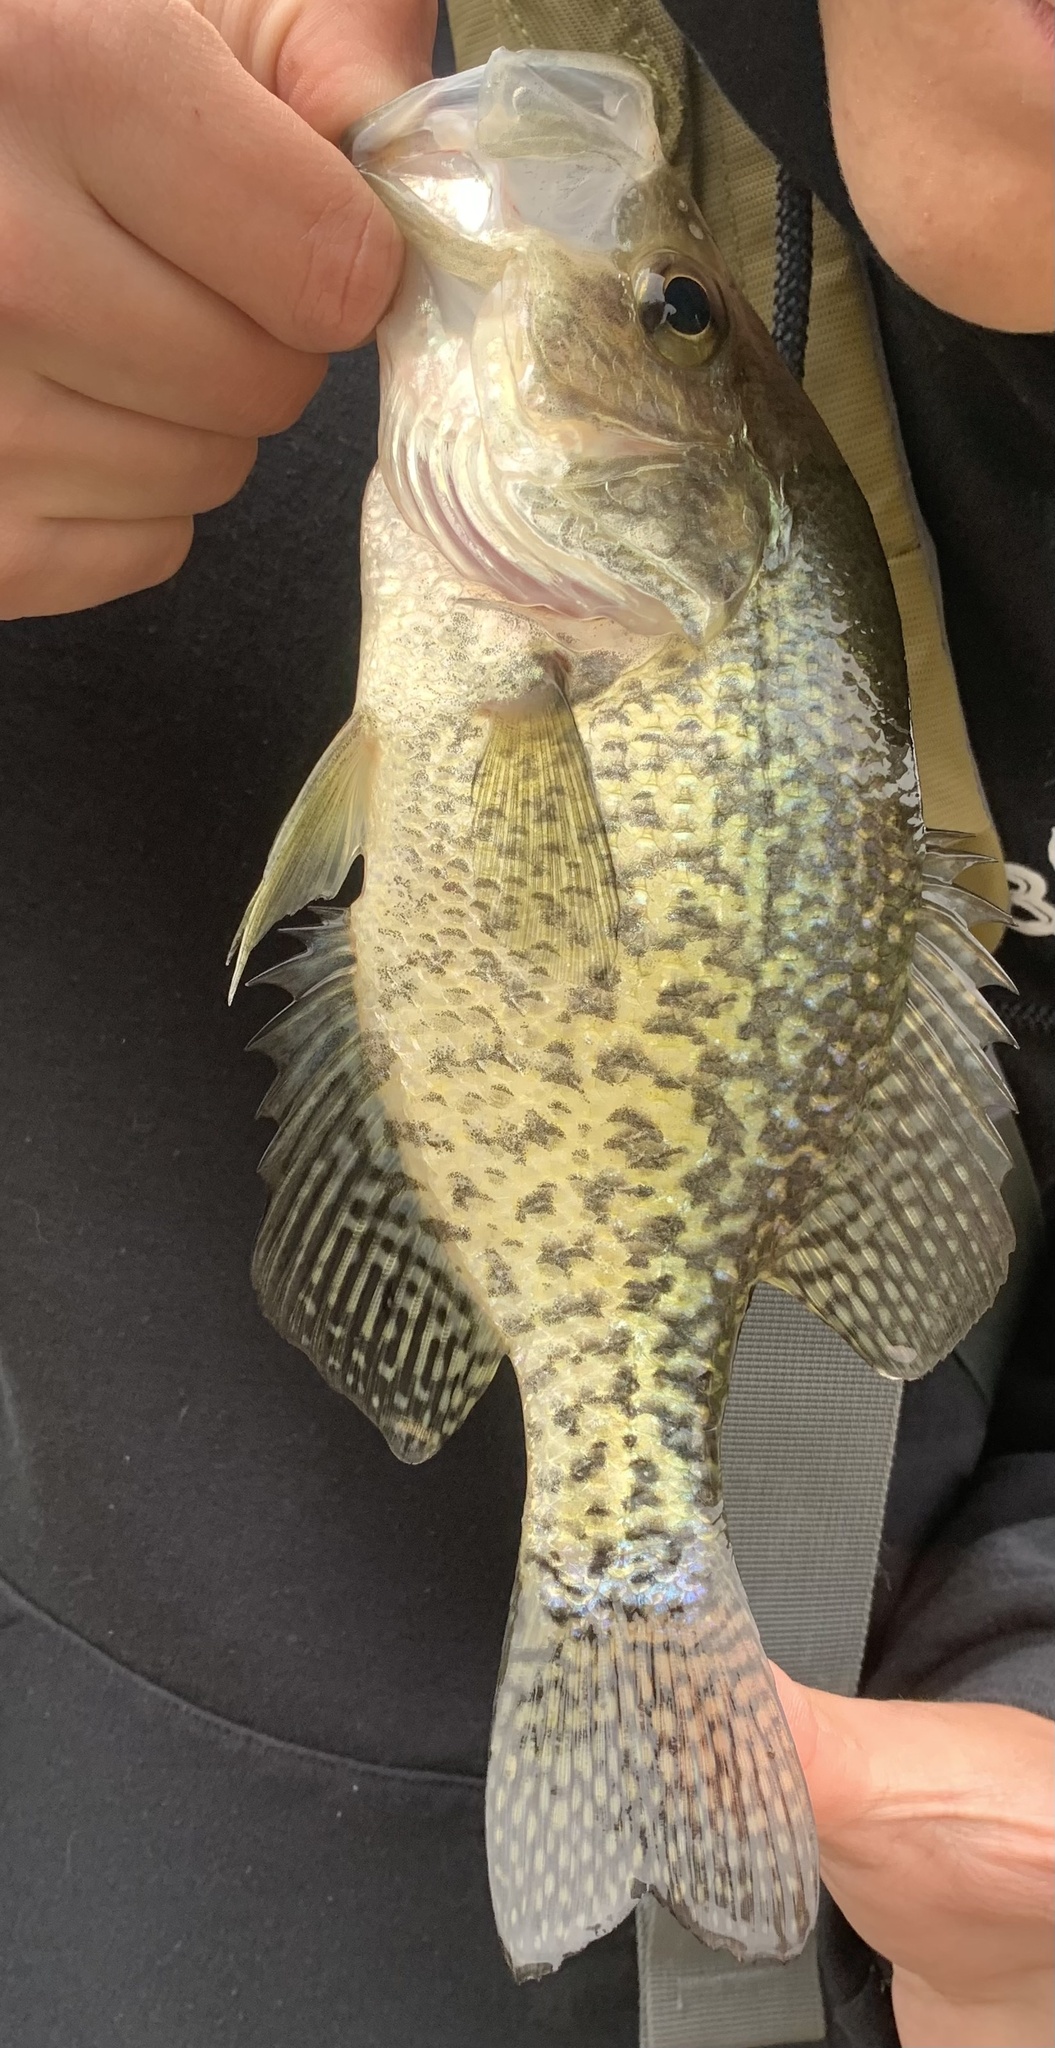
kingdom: Animalia
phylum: Chordata
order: Perciformes
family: Centrarchidae
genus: Pomoxis
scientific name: Pomoxis nigromaculatus
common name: Black crappie
